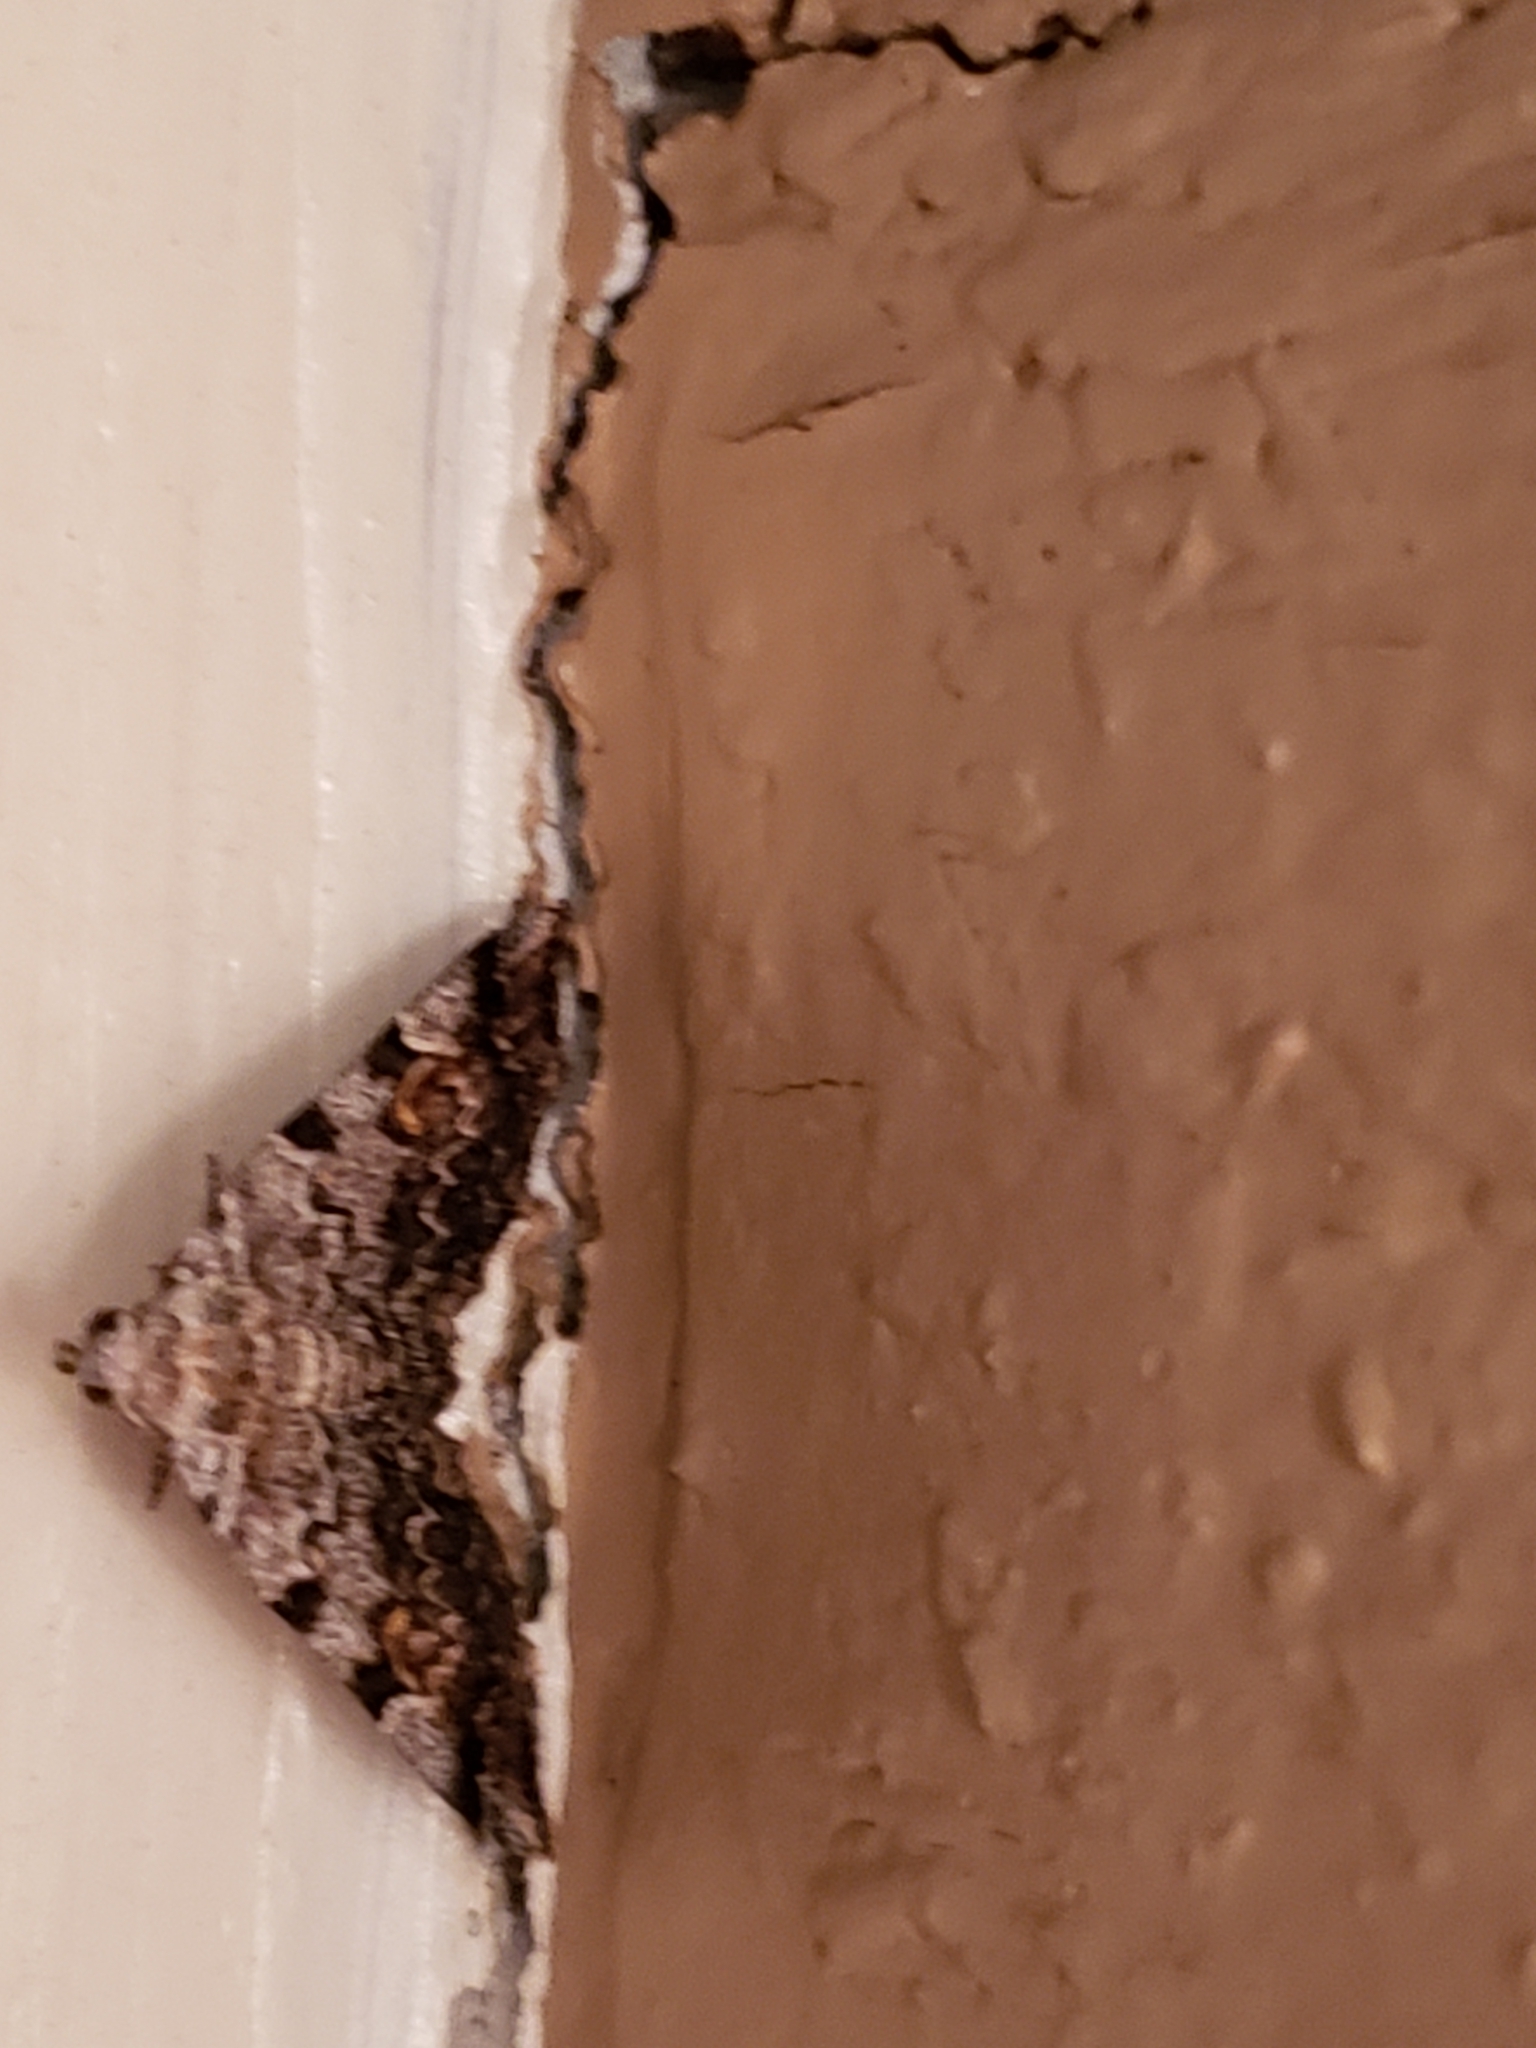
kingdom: Animalia
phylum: Arthropoda
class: Insecta
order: Lepidoptera
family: Erebidae
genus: Idia
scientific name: Idia americalis
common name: American idia moth
